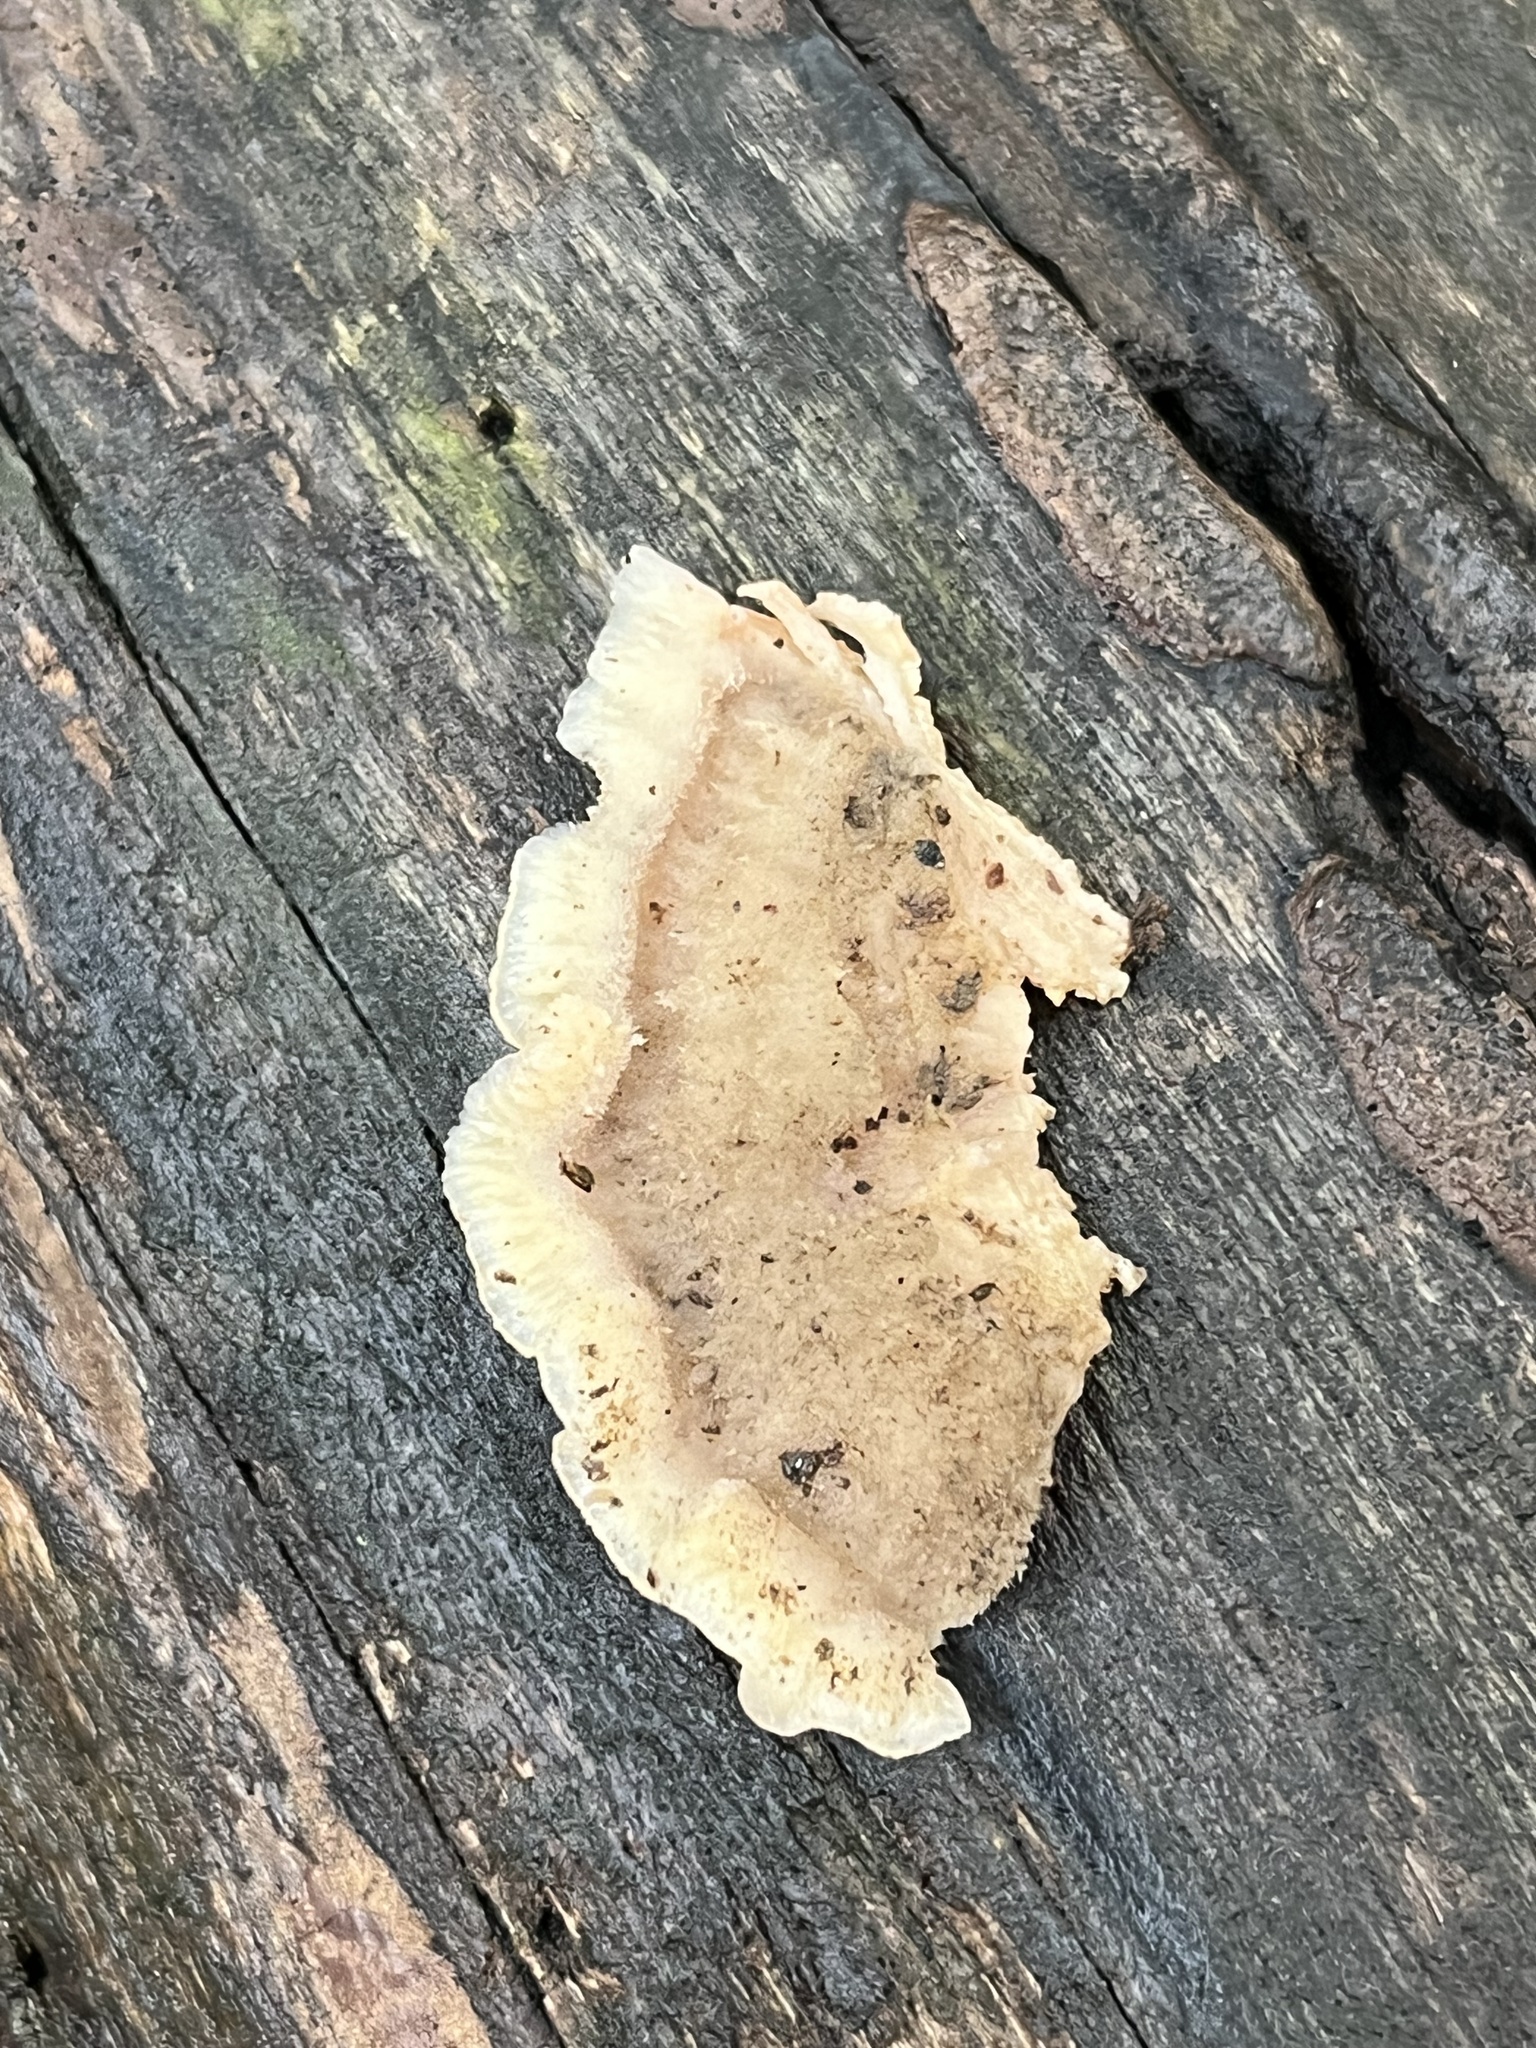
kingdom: Fungi
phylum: Basidiomycota
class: Agaricomycetes
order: Polyporales
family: Meruliaceae
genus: Phlebia
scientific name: Phlebia tremellosa
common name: Jelly rot
